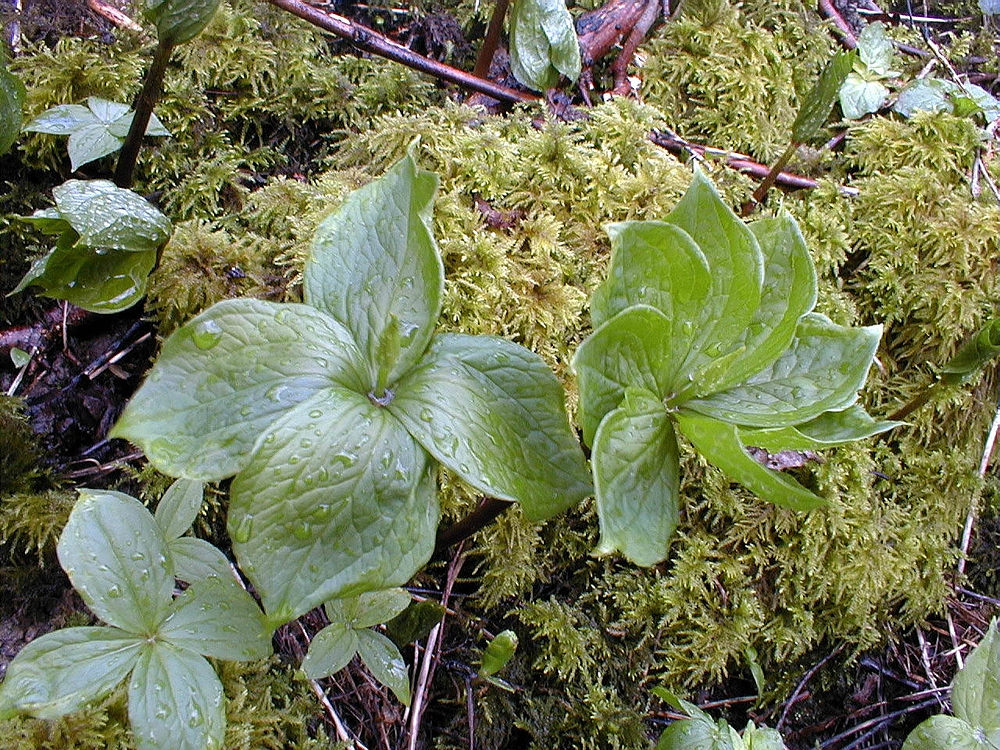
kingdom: Plantae
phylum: Tracheophyta
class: Liliopsida
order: Liliales
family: Melanthiaceae
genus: Paris
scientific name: Paris quadrifolia
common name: Herb-paris
